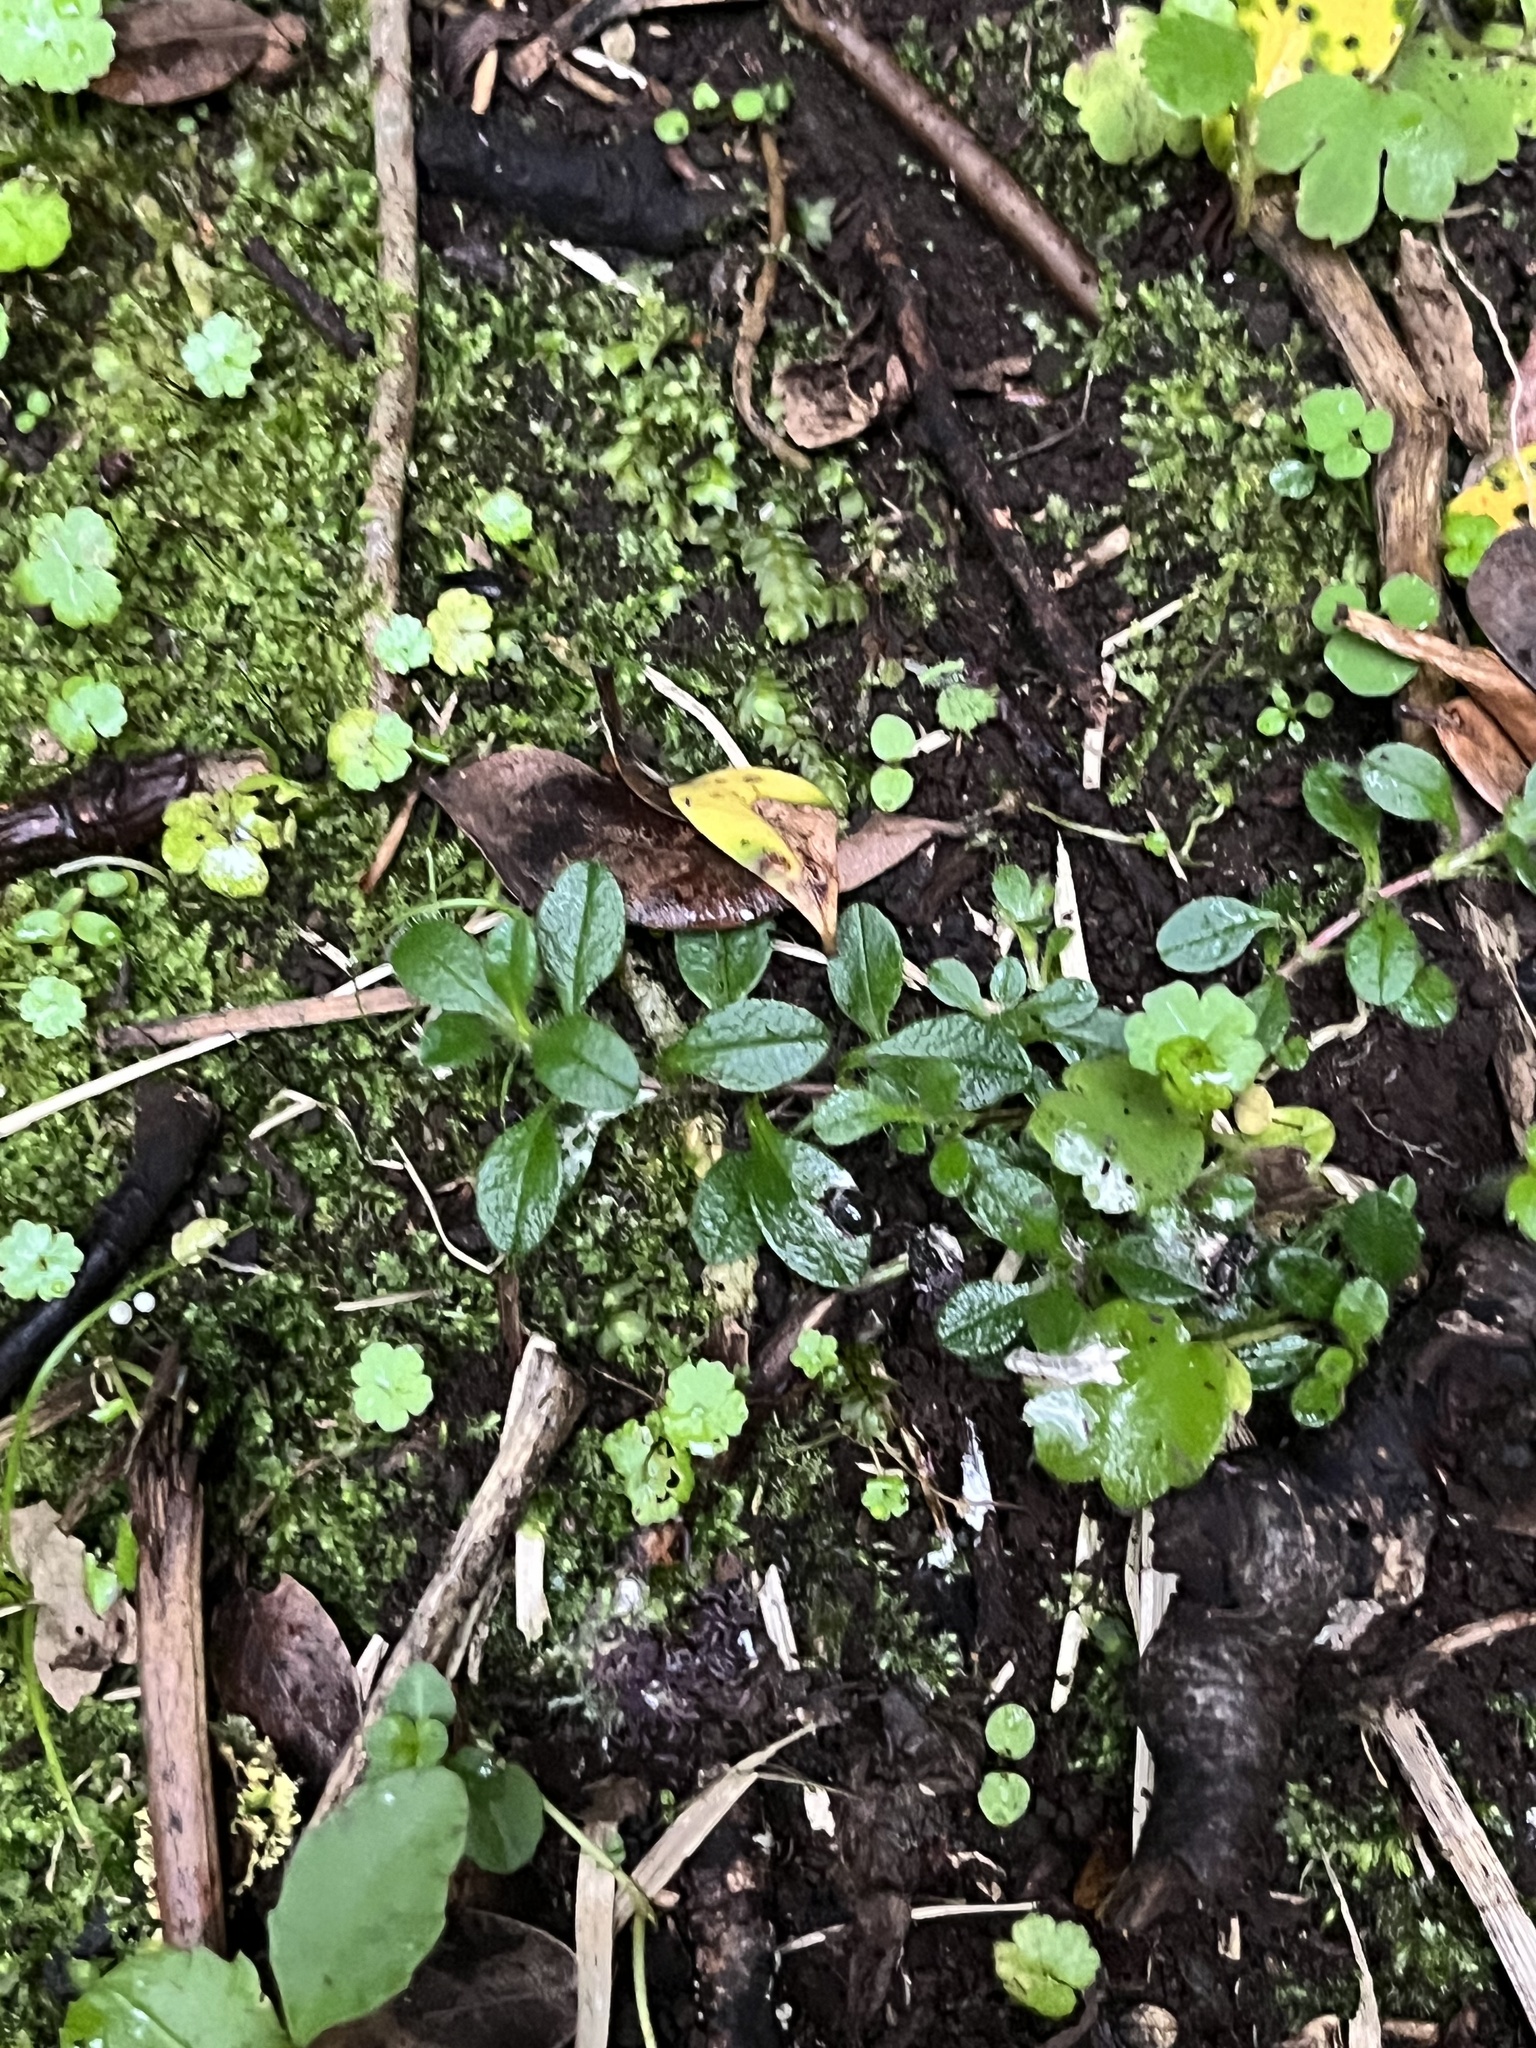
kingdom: Plantae
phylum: Tracheophyta
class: Magnoliopsida
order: Caryophyllales
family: Caryophyllaceae
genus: Cerastium
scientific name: Cerastium fontanum
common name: Common mouse-ear
